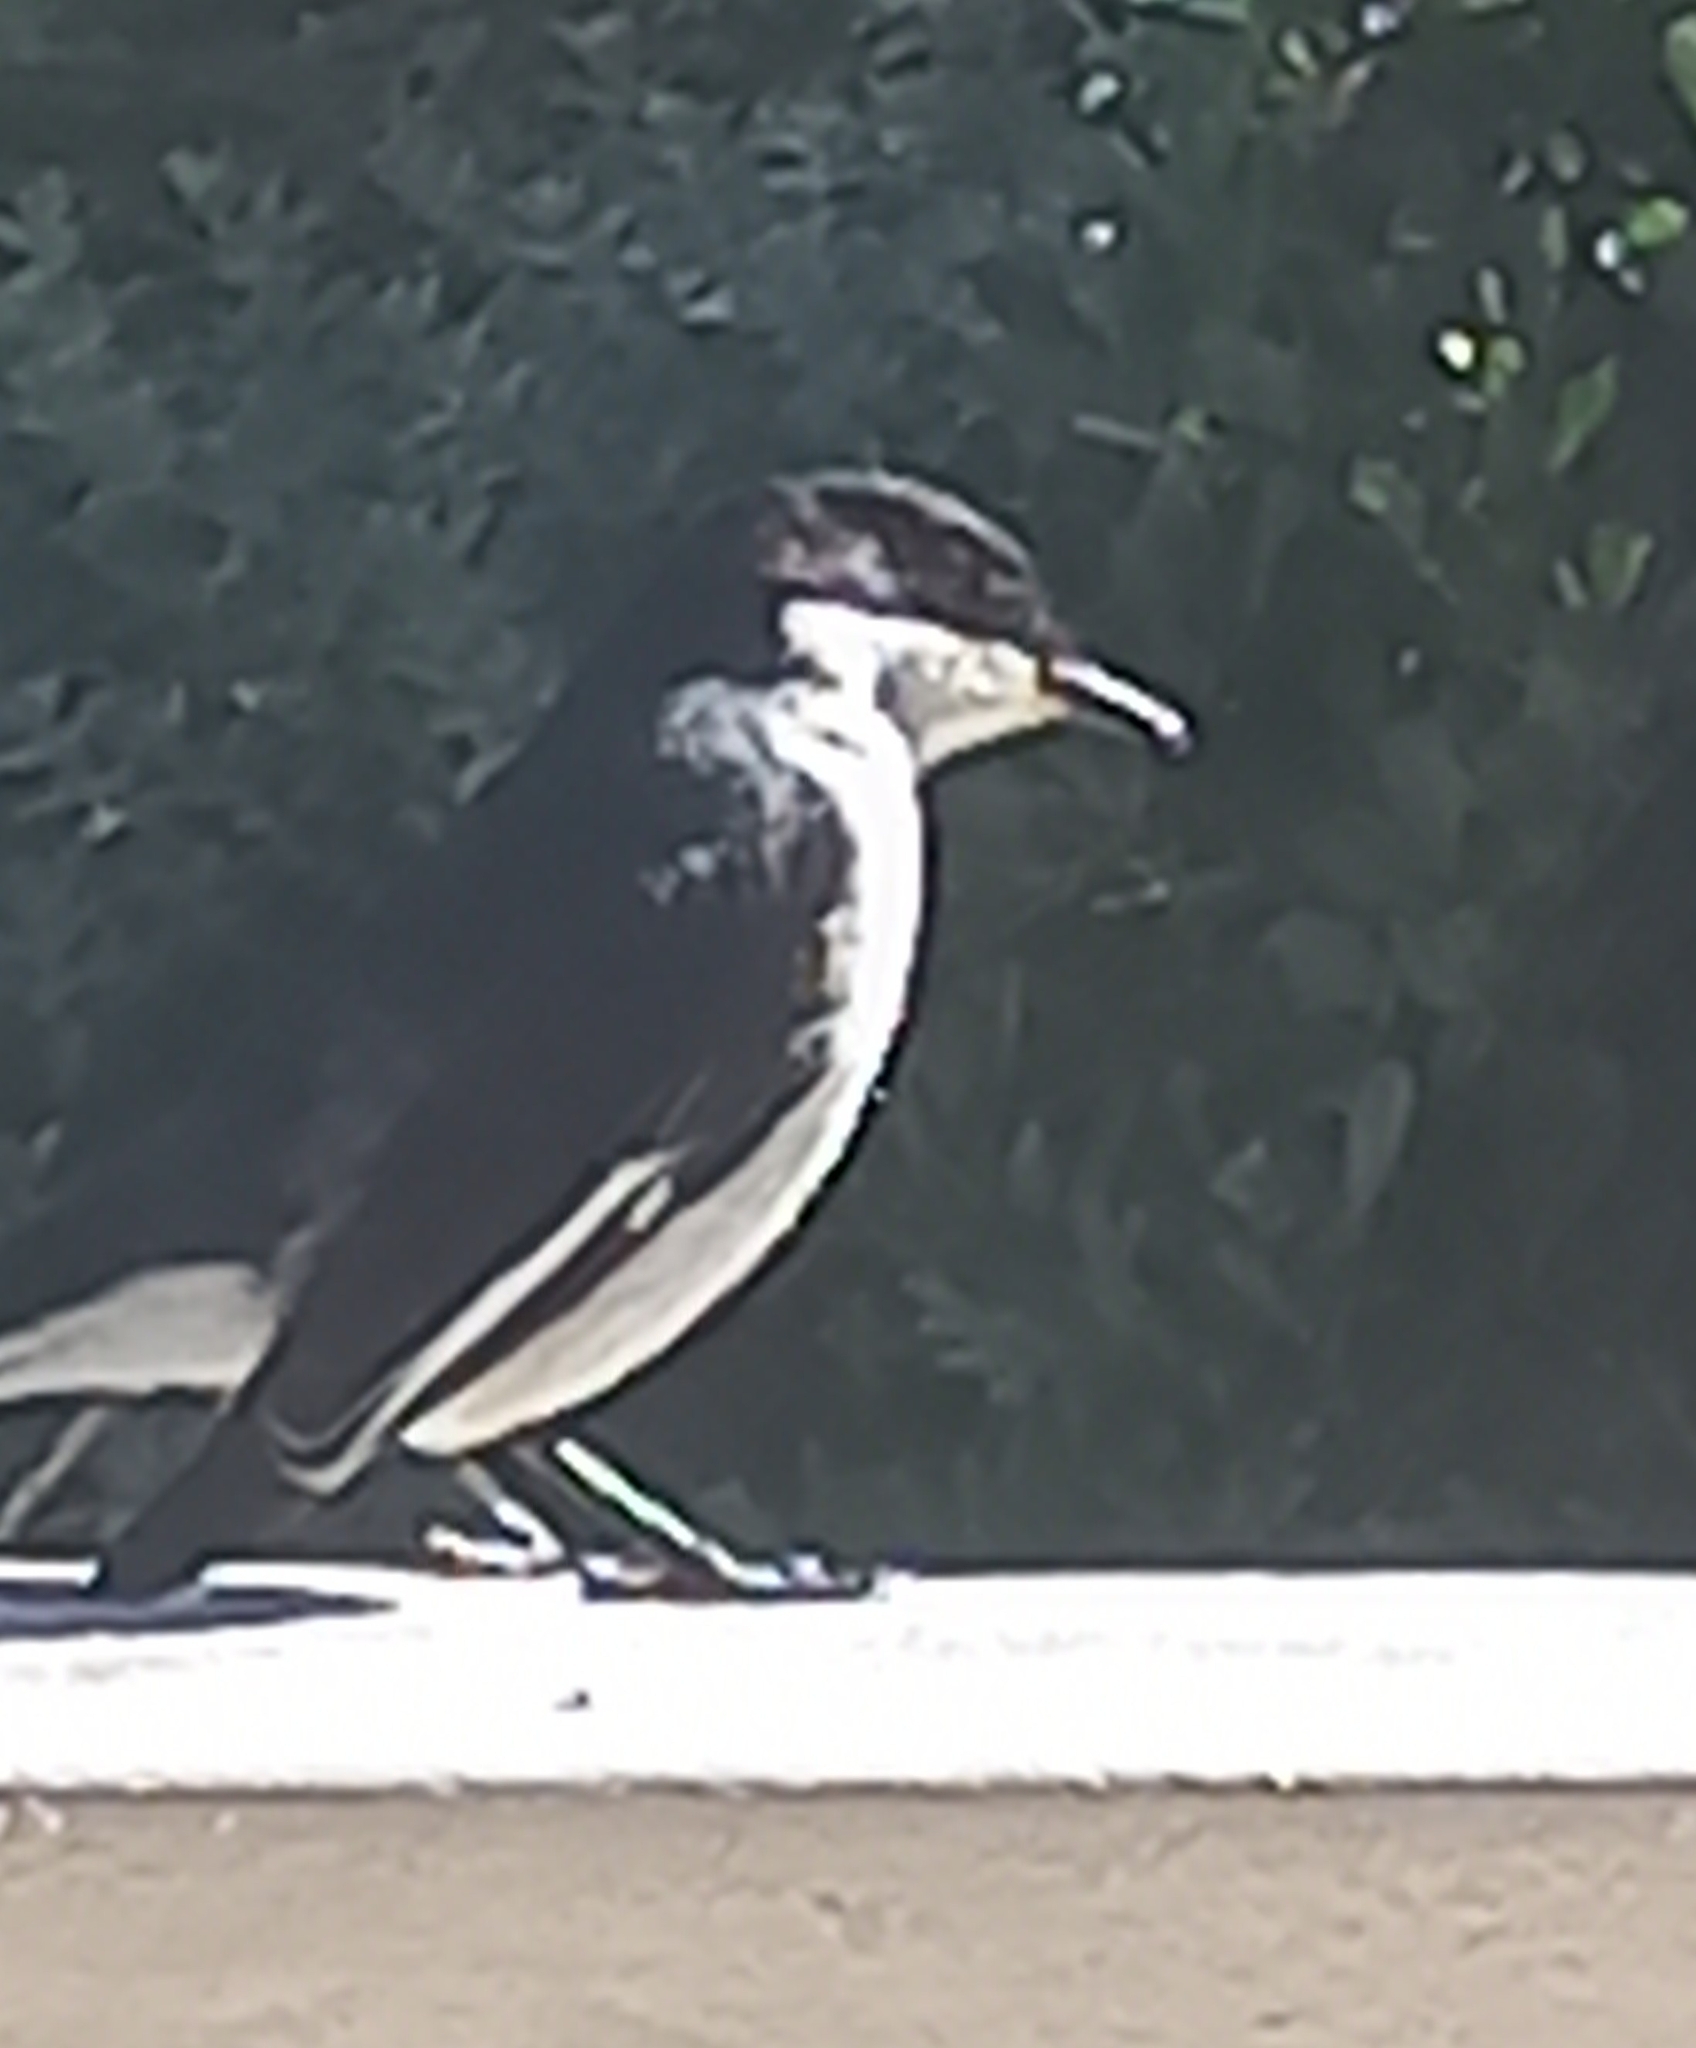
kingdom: Animalia
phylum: Chordata
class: Aves
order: Passeriformes
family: Muscicapidae
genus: Sigelus
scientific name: Sigelus silens
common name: Fiscal flycatcher
